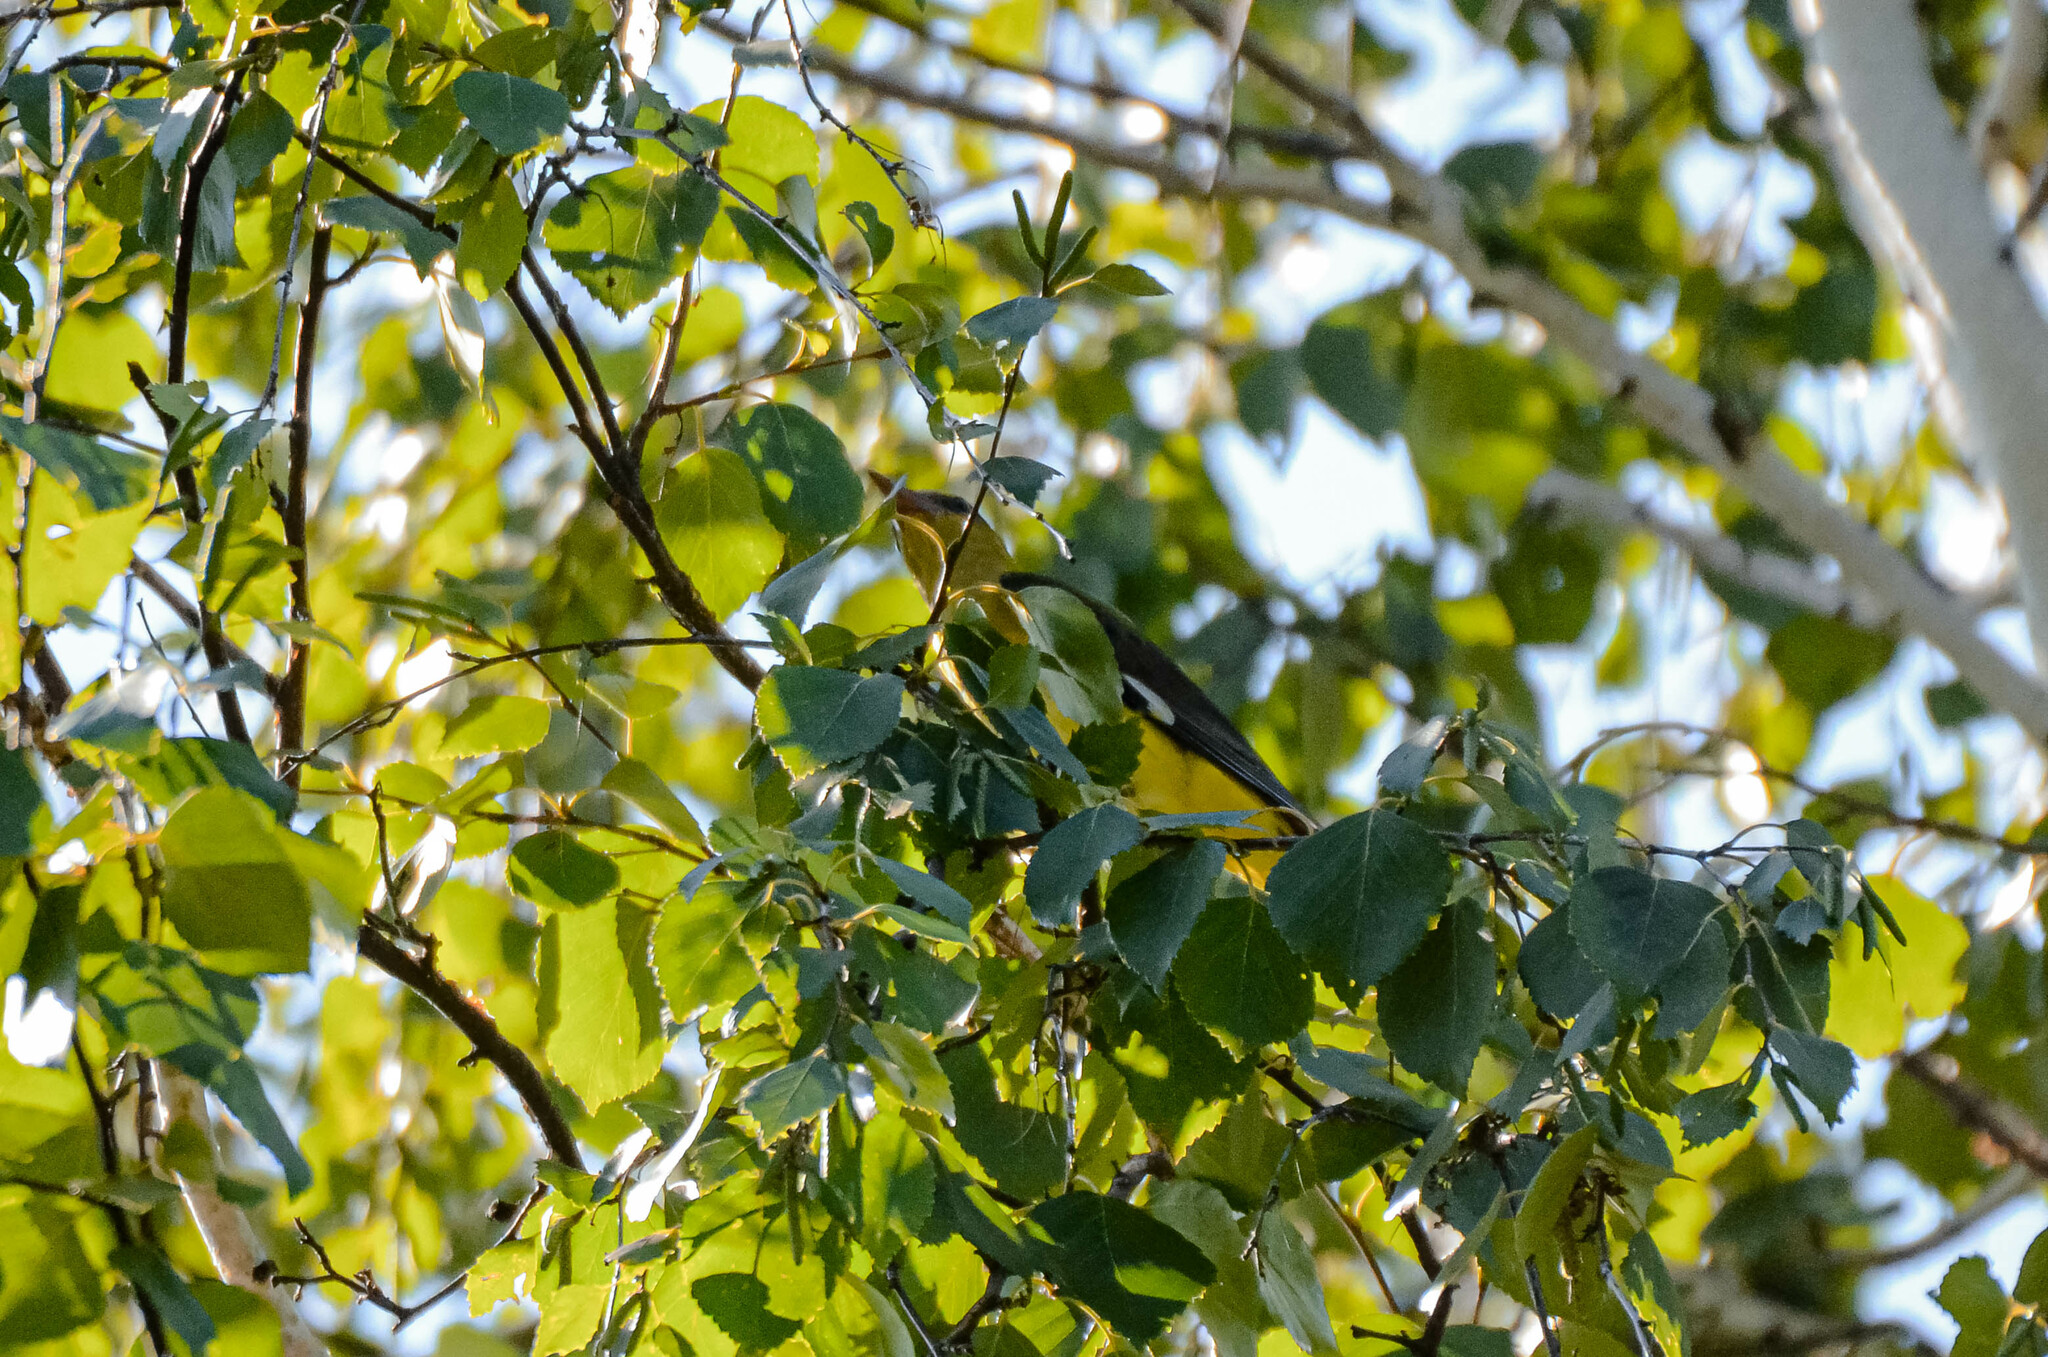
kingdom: Animalia
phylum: Chordata
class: Aves
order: Passeriformes
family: Oriolidae
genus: Oriolus
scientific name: Oriolus oriolus
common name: Eurasian golden oriole
